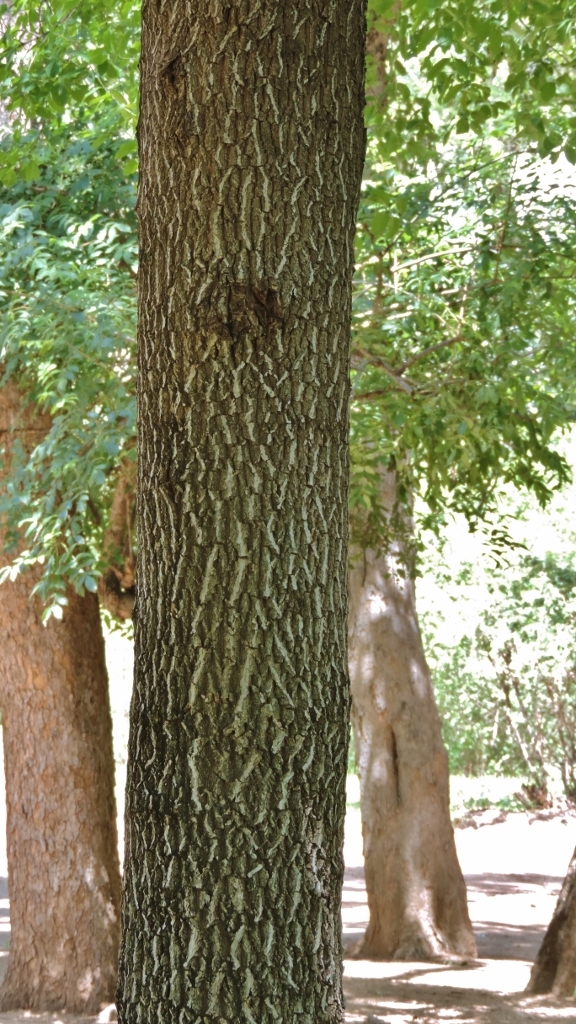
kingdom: Plantae
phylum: Tracheophyta
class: Magnoliopsida
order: Rosales
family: Rhamnaceae
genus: Phyllogeiton
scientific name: Phyllogeiton discolor
